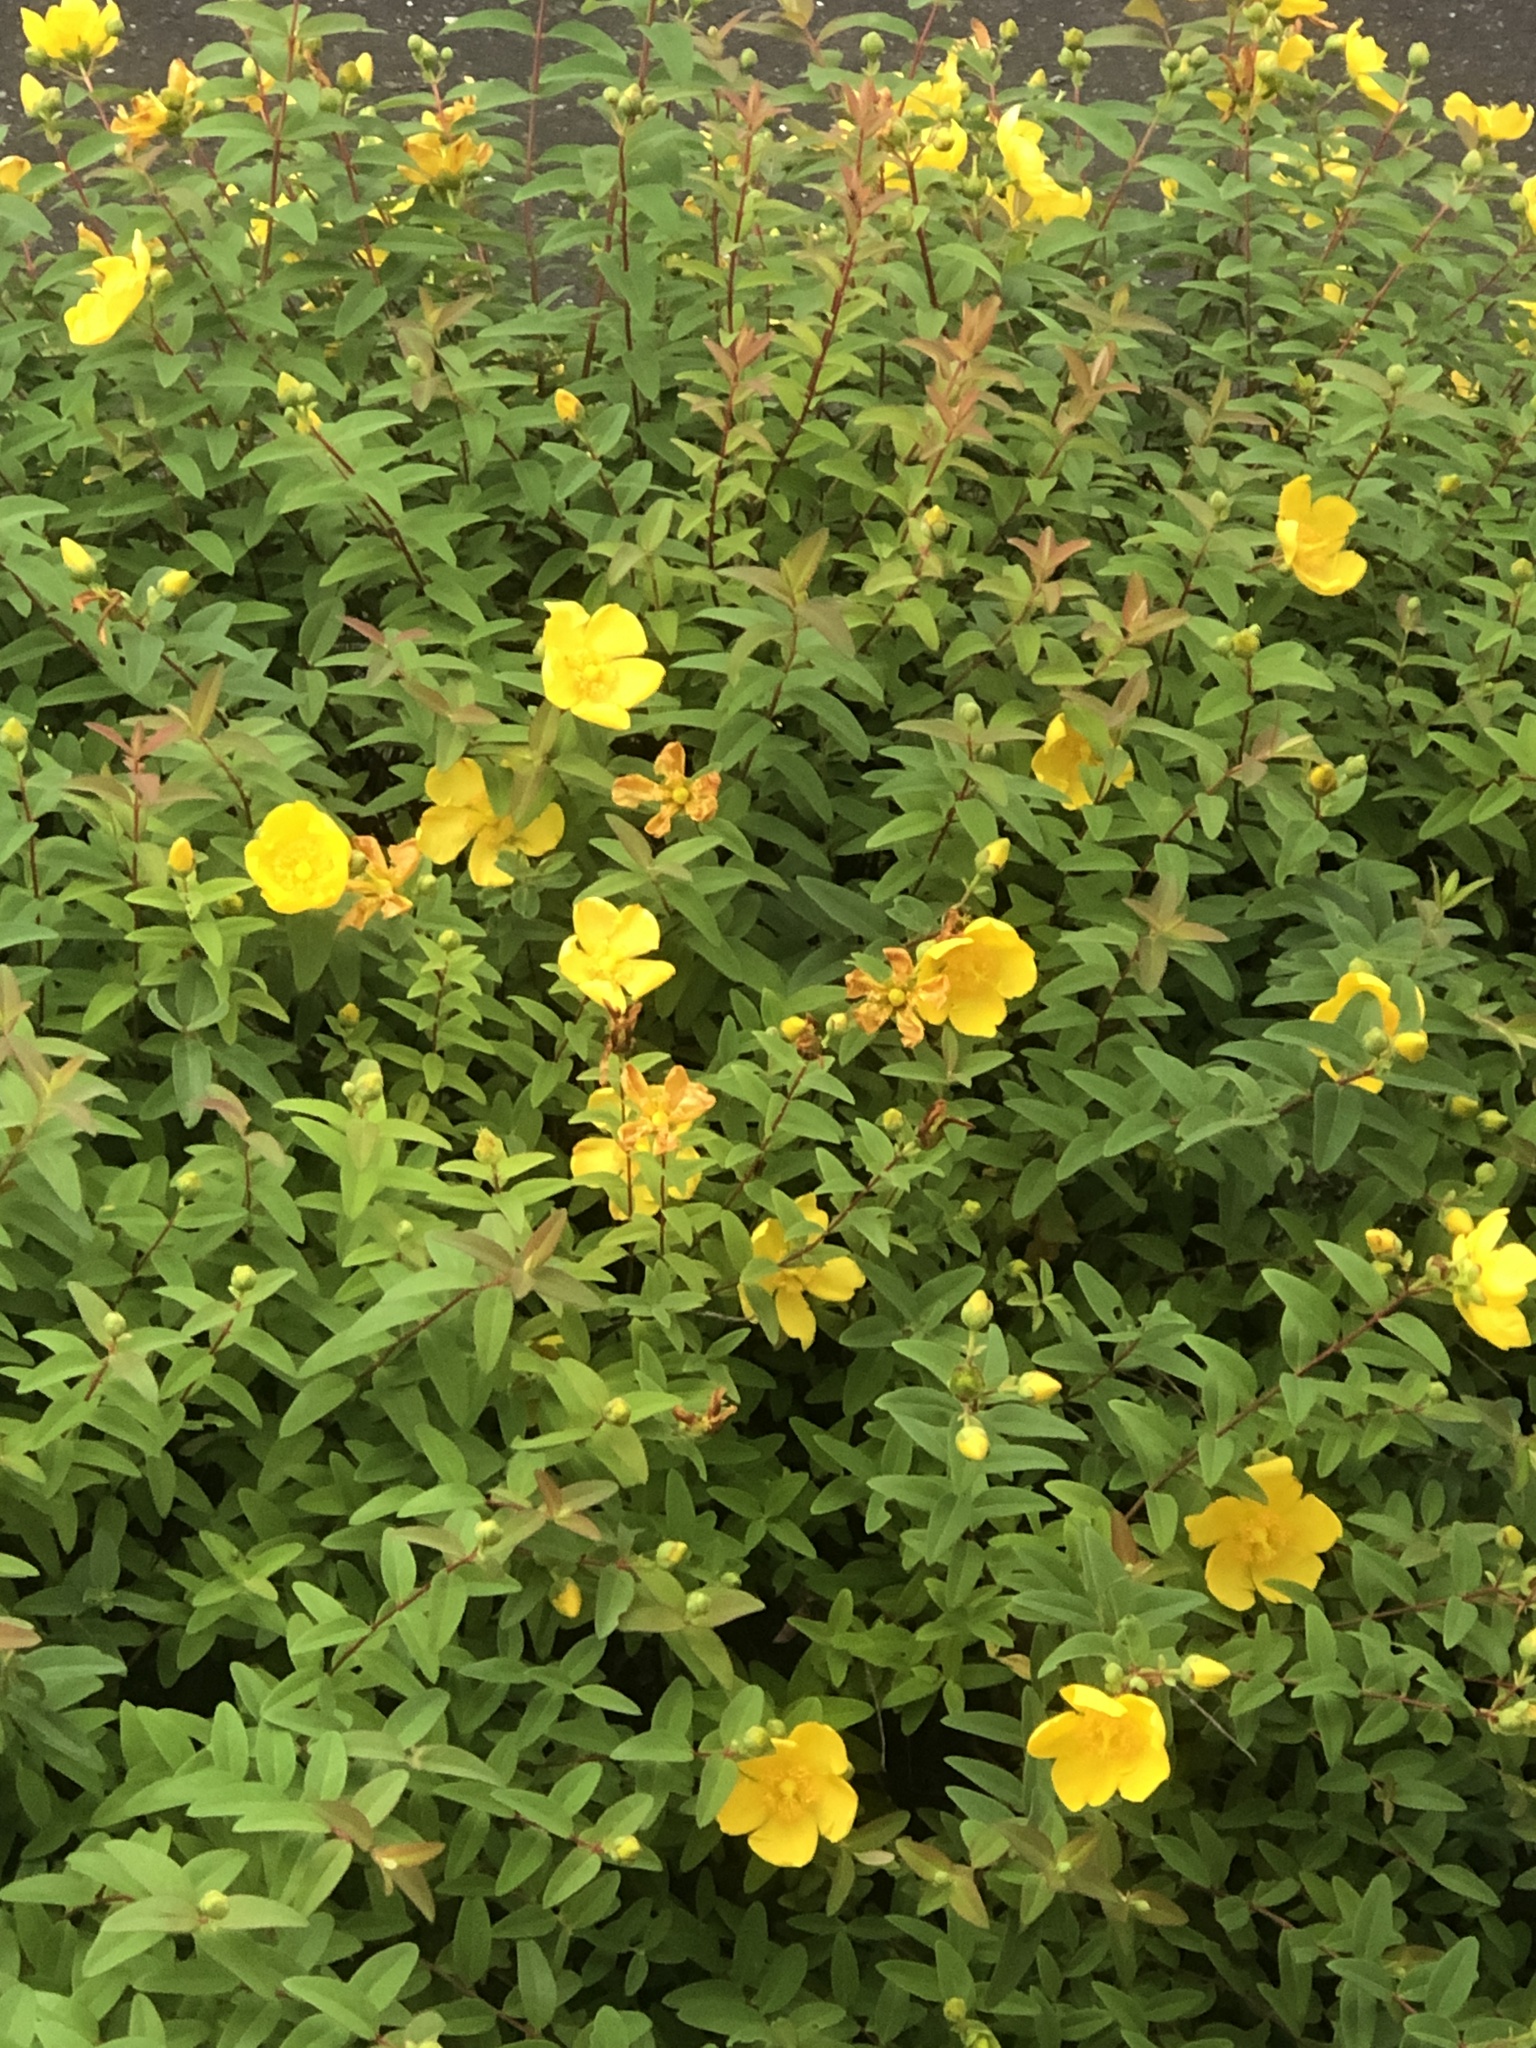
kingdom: Plantae
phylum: Tracheophyta
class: Magnoliopsida
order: Rosales
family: Rosaceae
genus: Kerria
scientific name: Kerria japonica
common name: Japanese kerria
